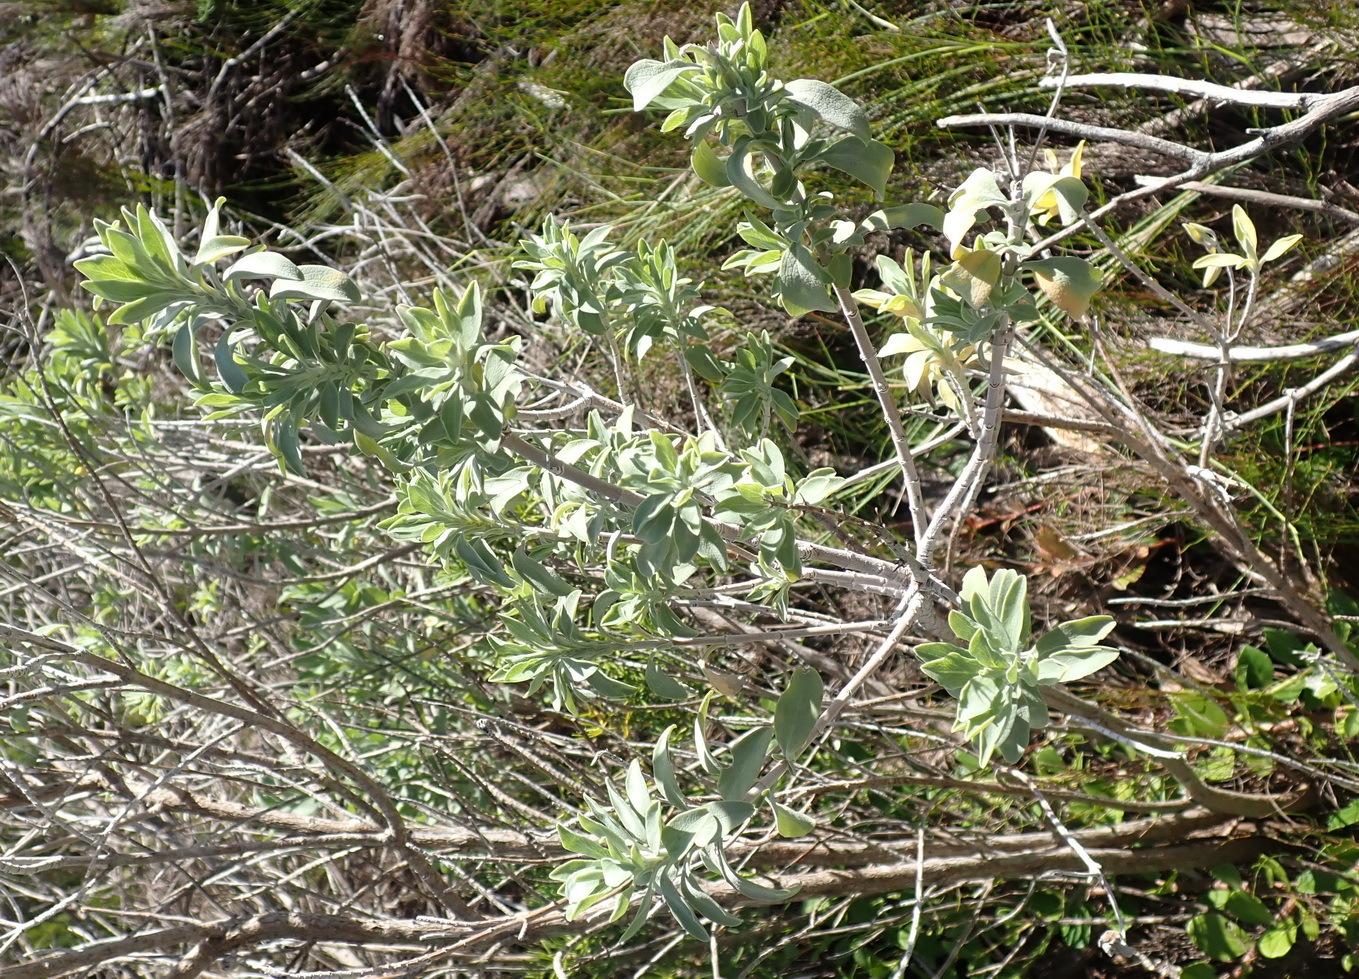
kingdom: Plantae
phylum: Tracheophyta
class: Magnoliopsida
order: Lamiales
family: Lamiaceae
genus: Salvia
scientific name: Salvia aurea
